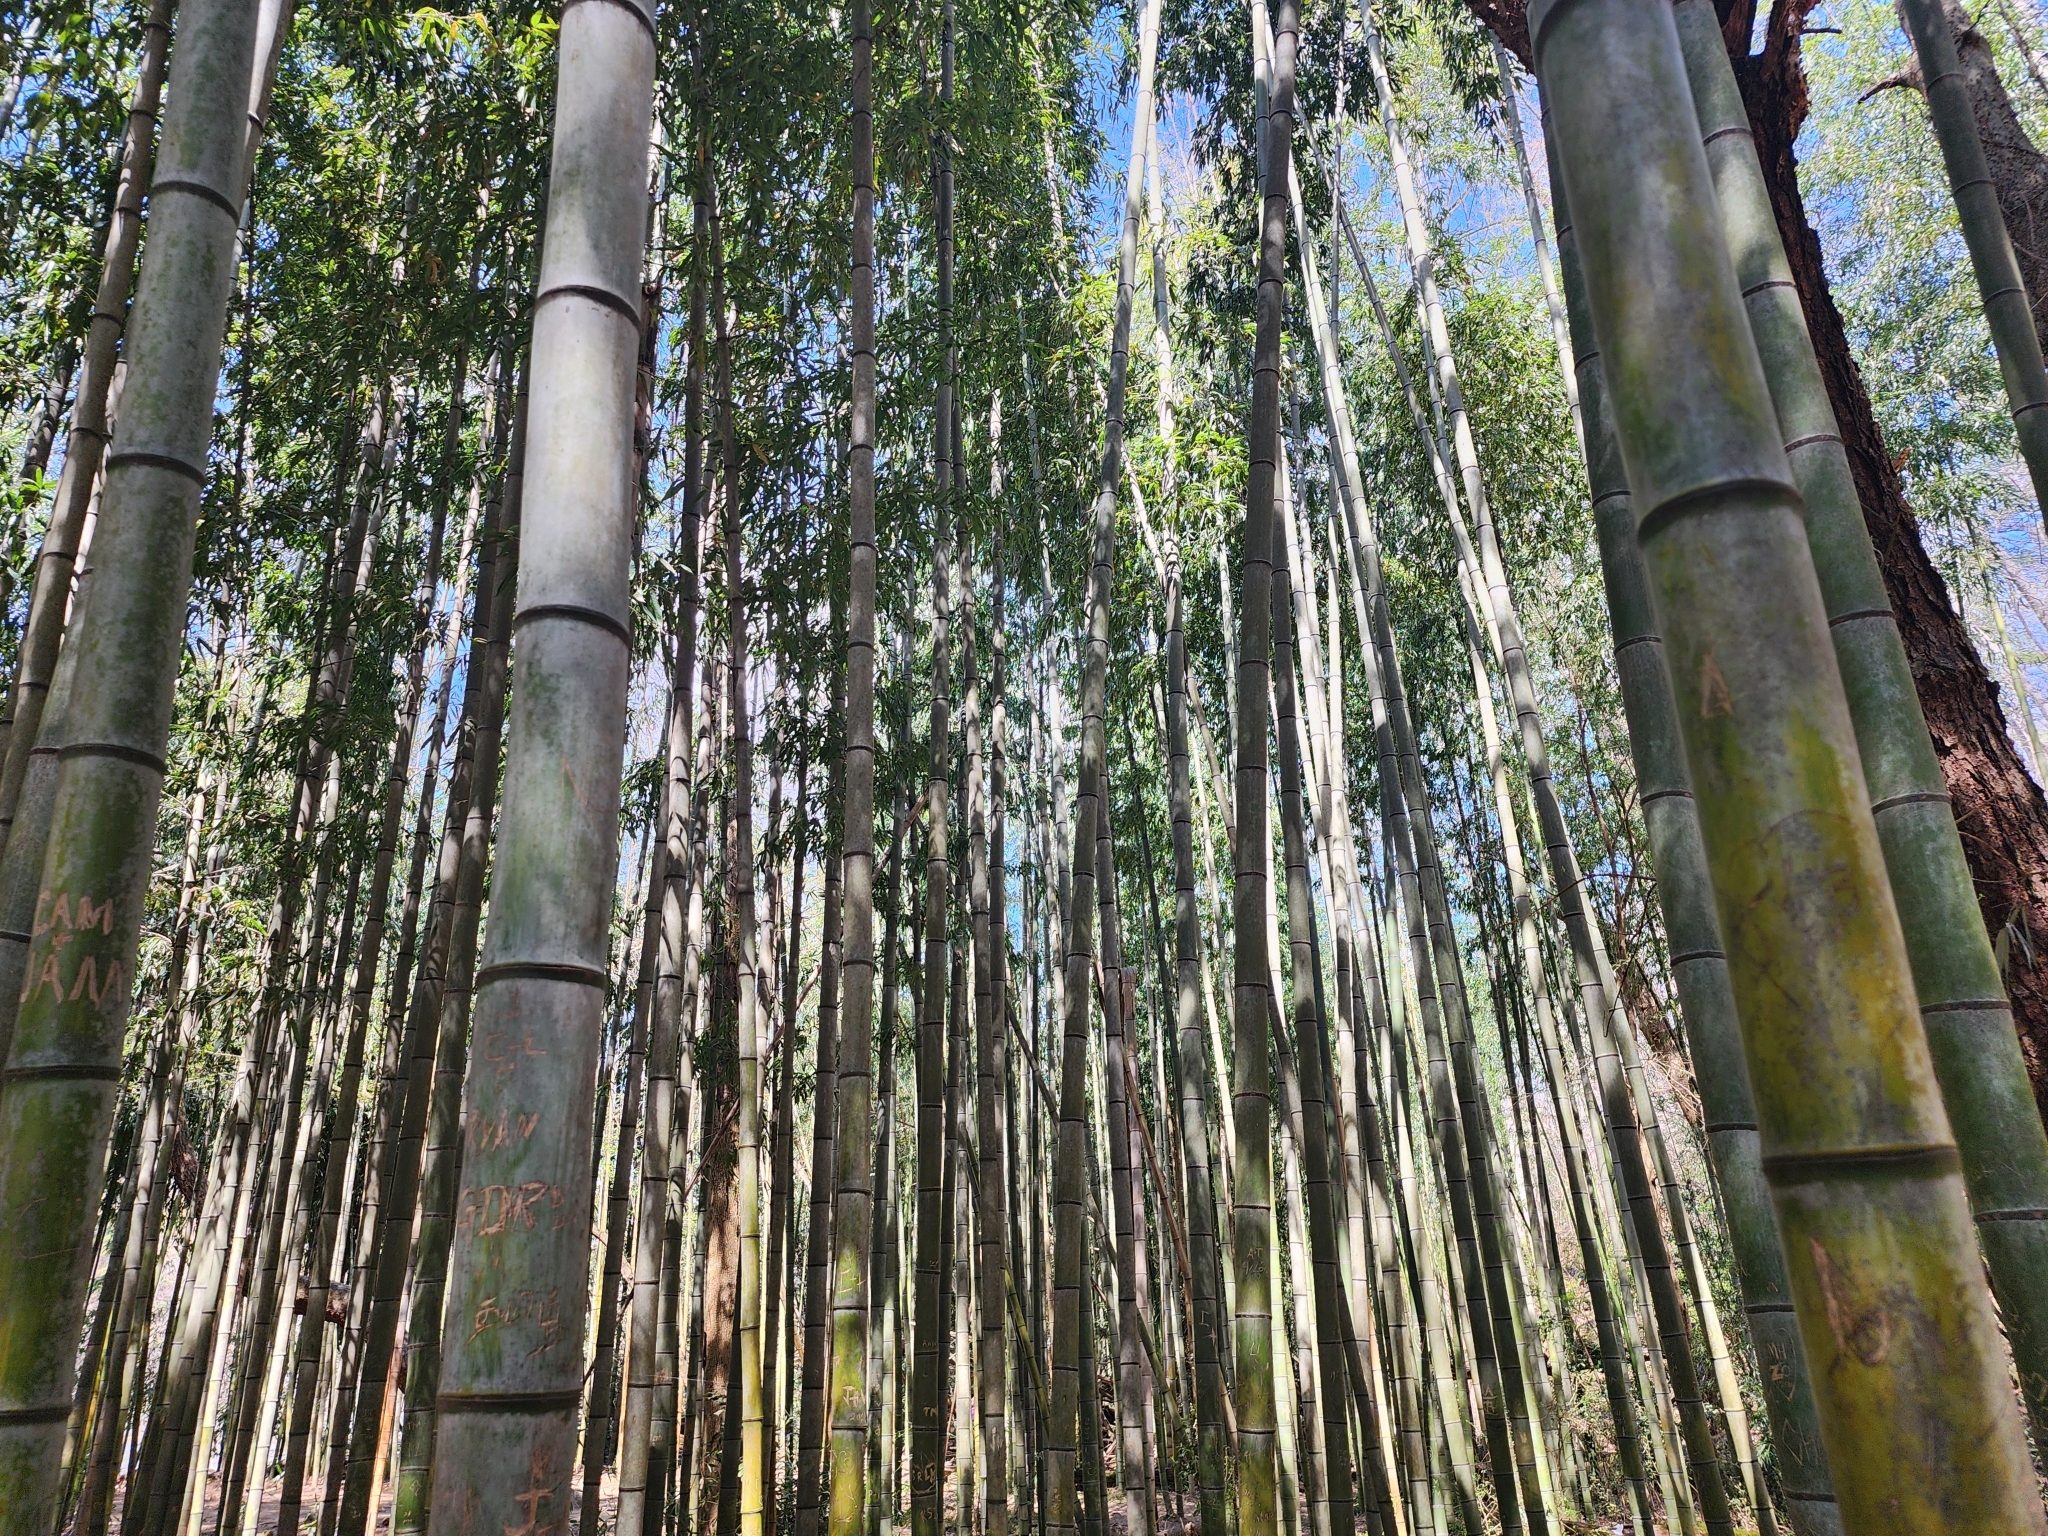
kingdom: Plantae
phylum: Tracheophyta
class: Liliopsida
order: Poales
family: Poaceae
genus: Phyllostachys
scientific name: Phyllostachys reticulata
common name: Bamboo
